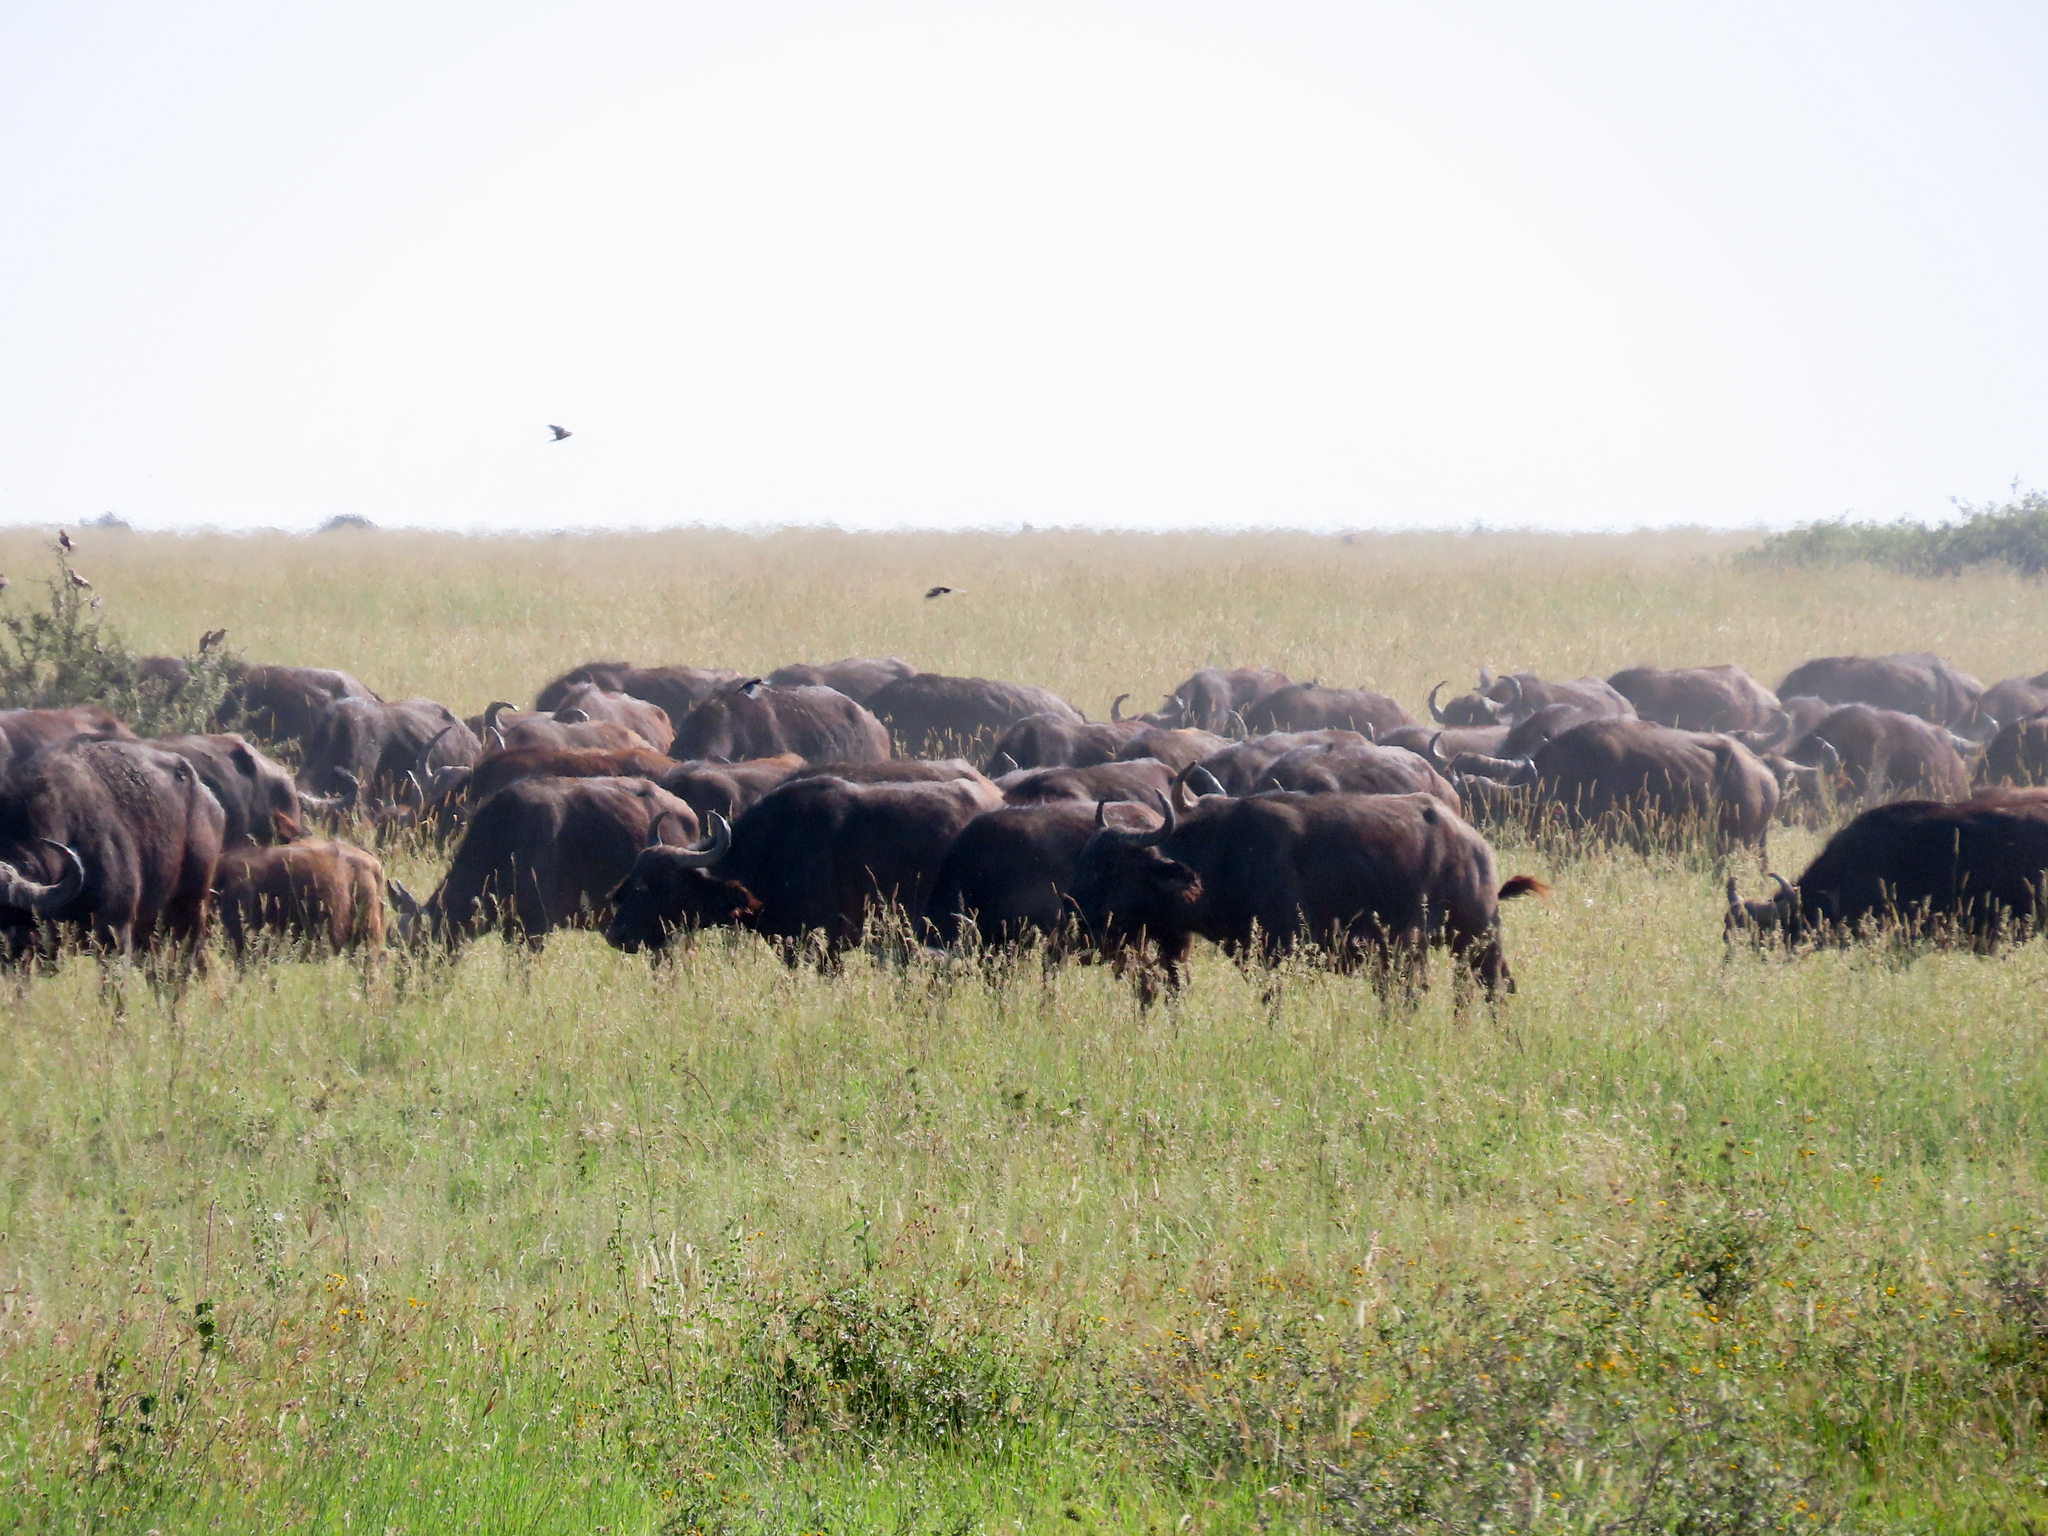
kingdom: Animalia
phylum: Chordata
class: Mammalia
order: Artiodactyla
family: Bovidae
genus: Syncerus
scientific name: Syncerus caffer
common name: African buffalo
